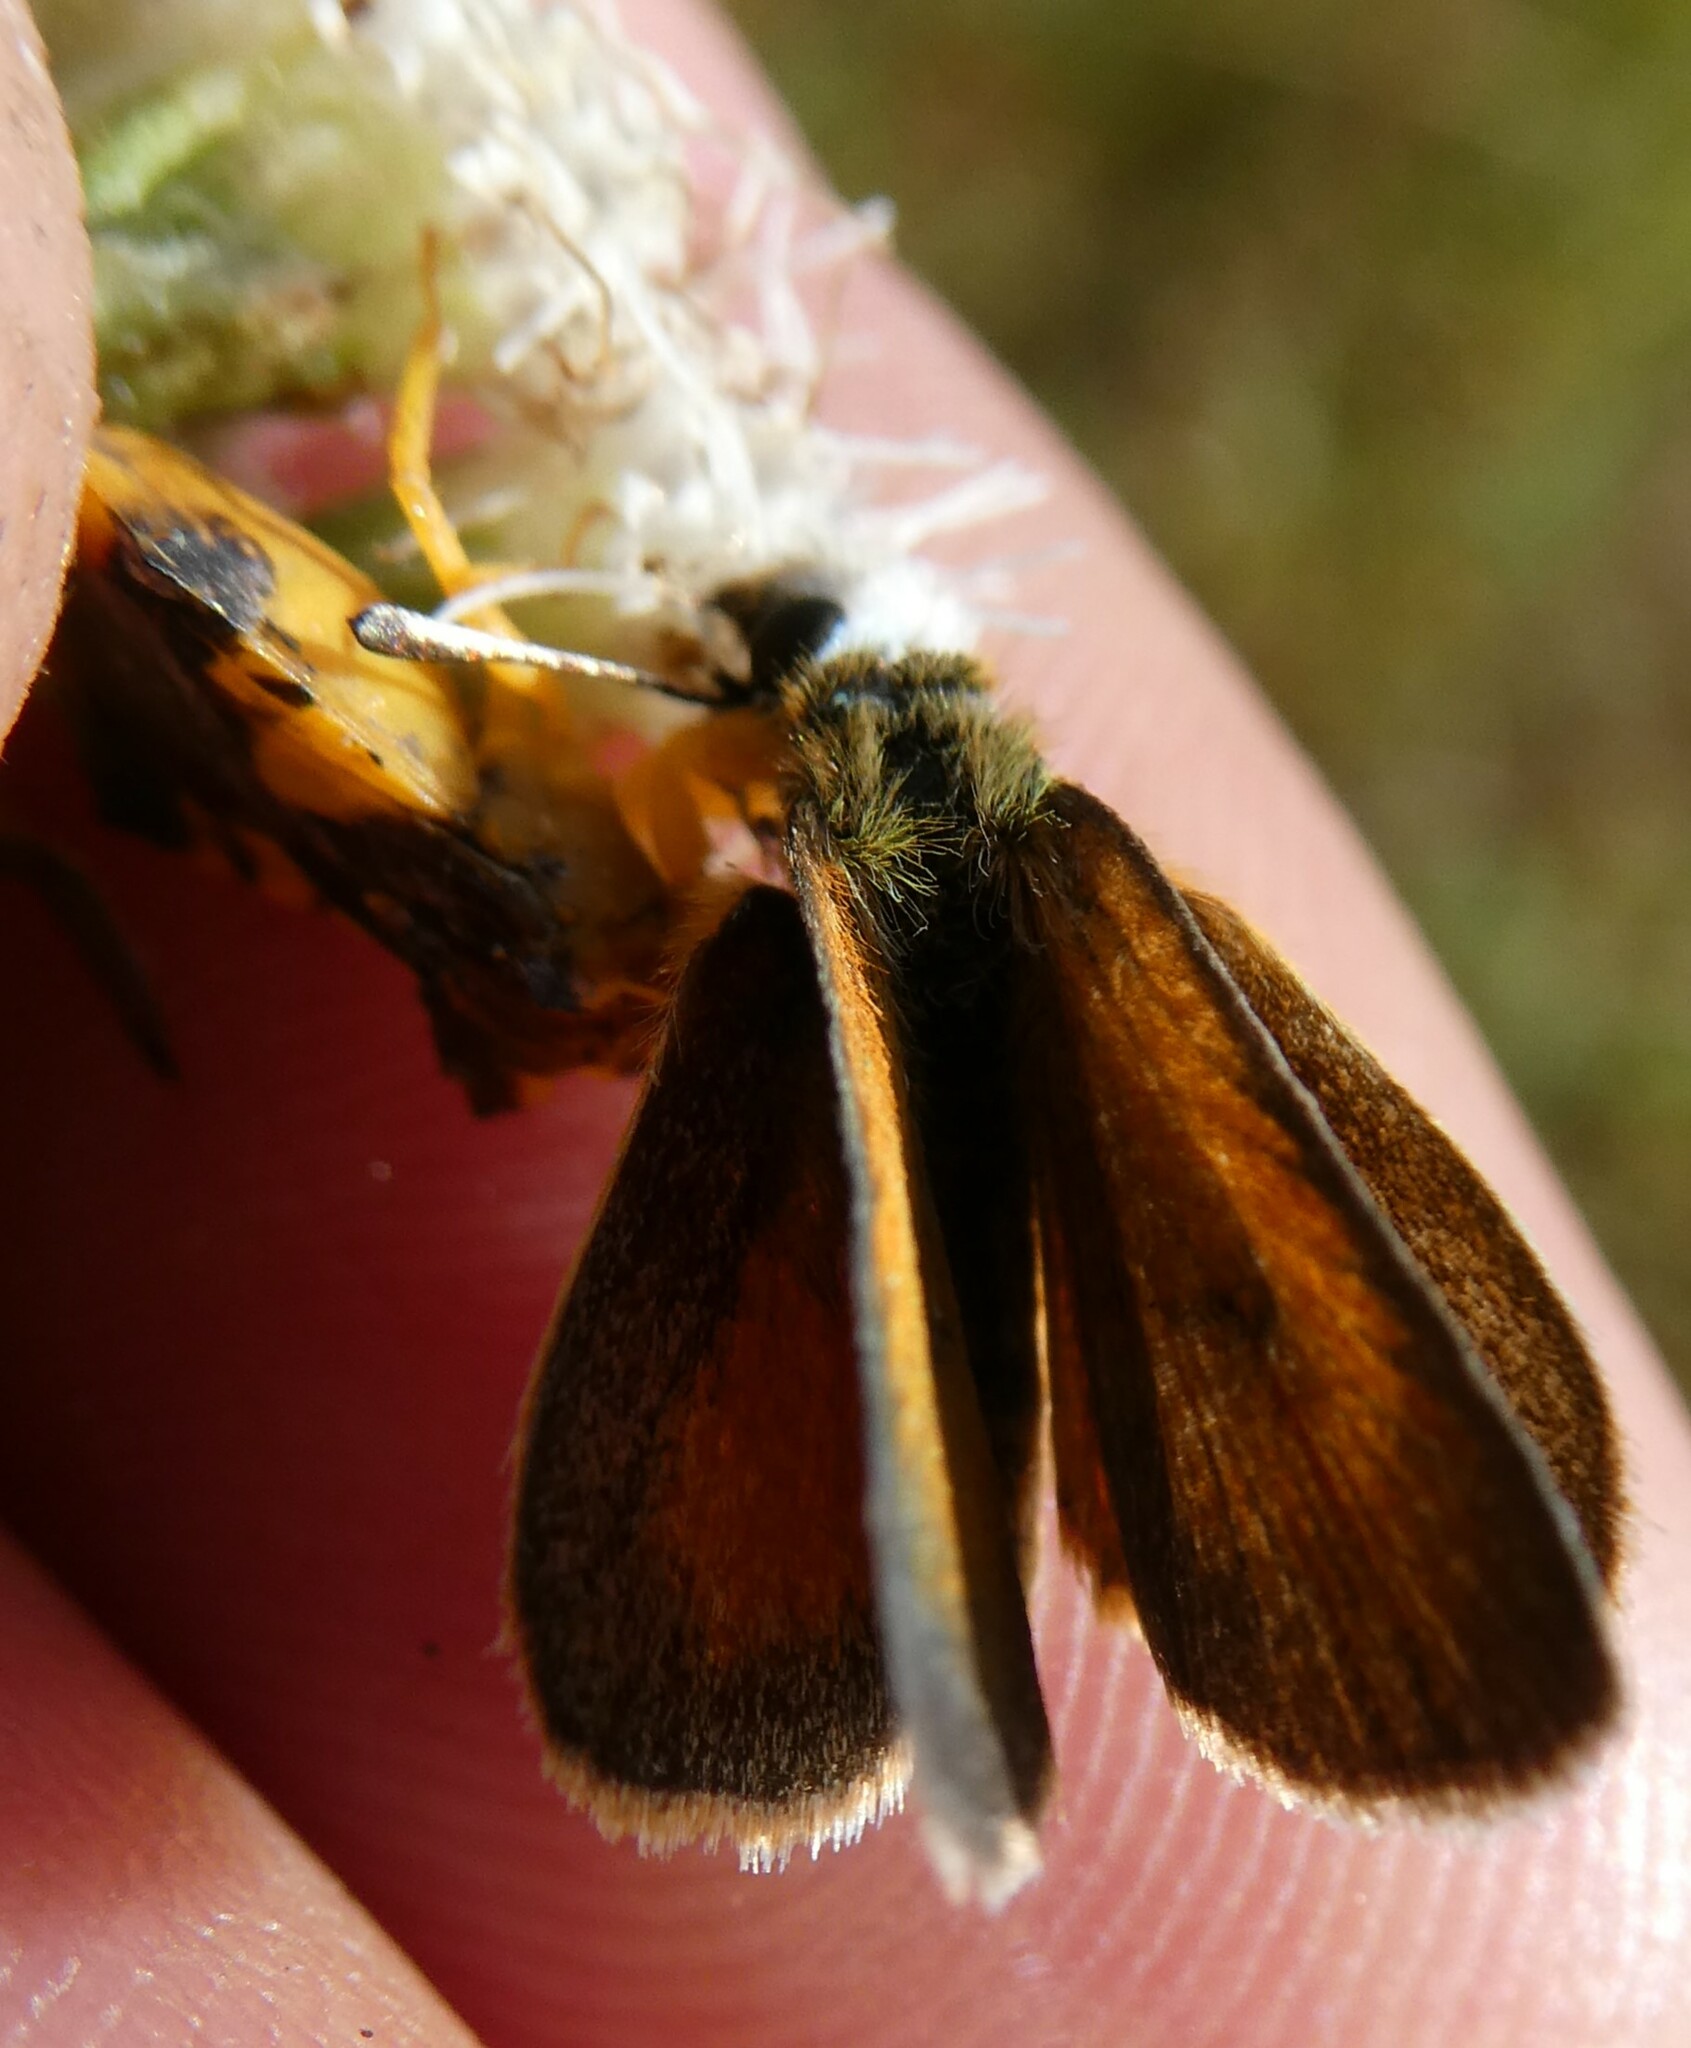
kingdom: Animalia
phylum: Arthropoda
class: Insecta
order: Lepidoptera
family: Hesperiidae
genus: Ancyloxypha
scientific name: Ancyloxypha numitor
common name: Least skipper
